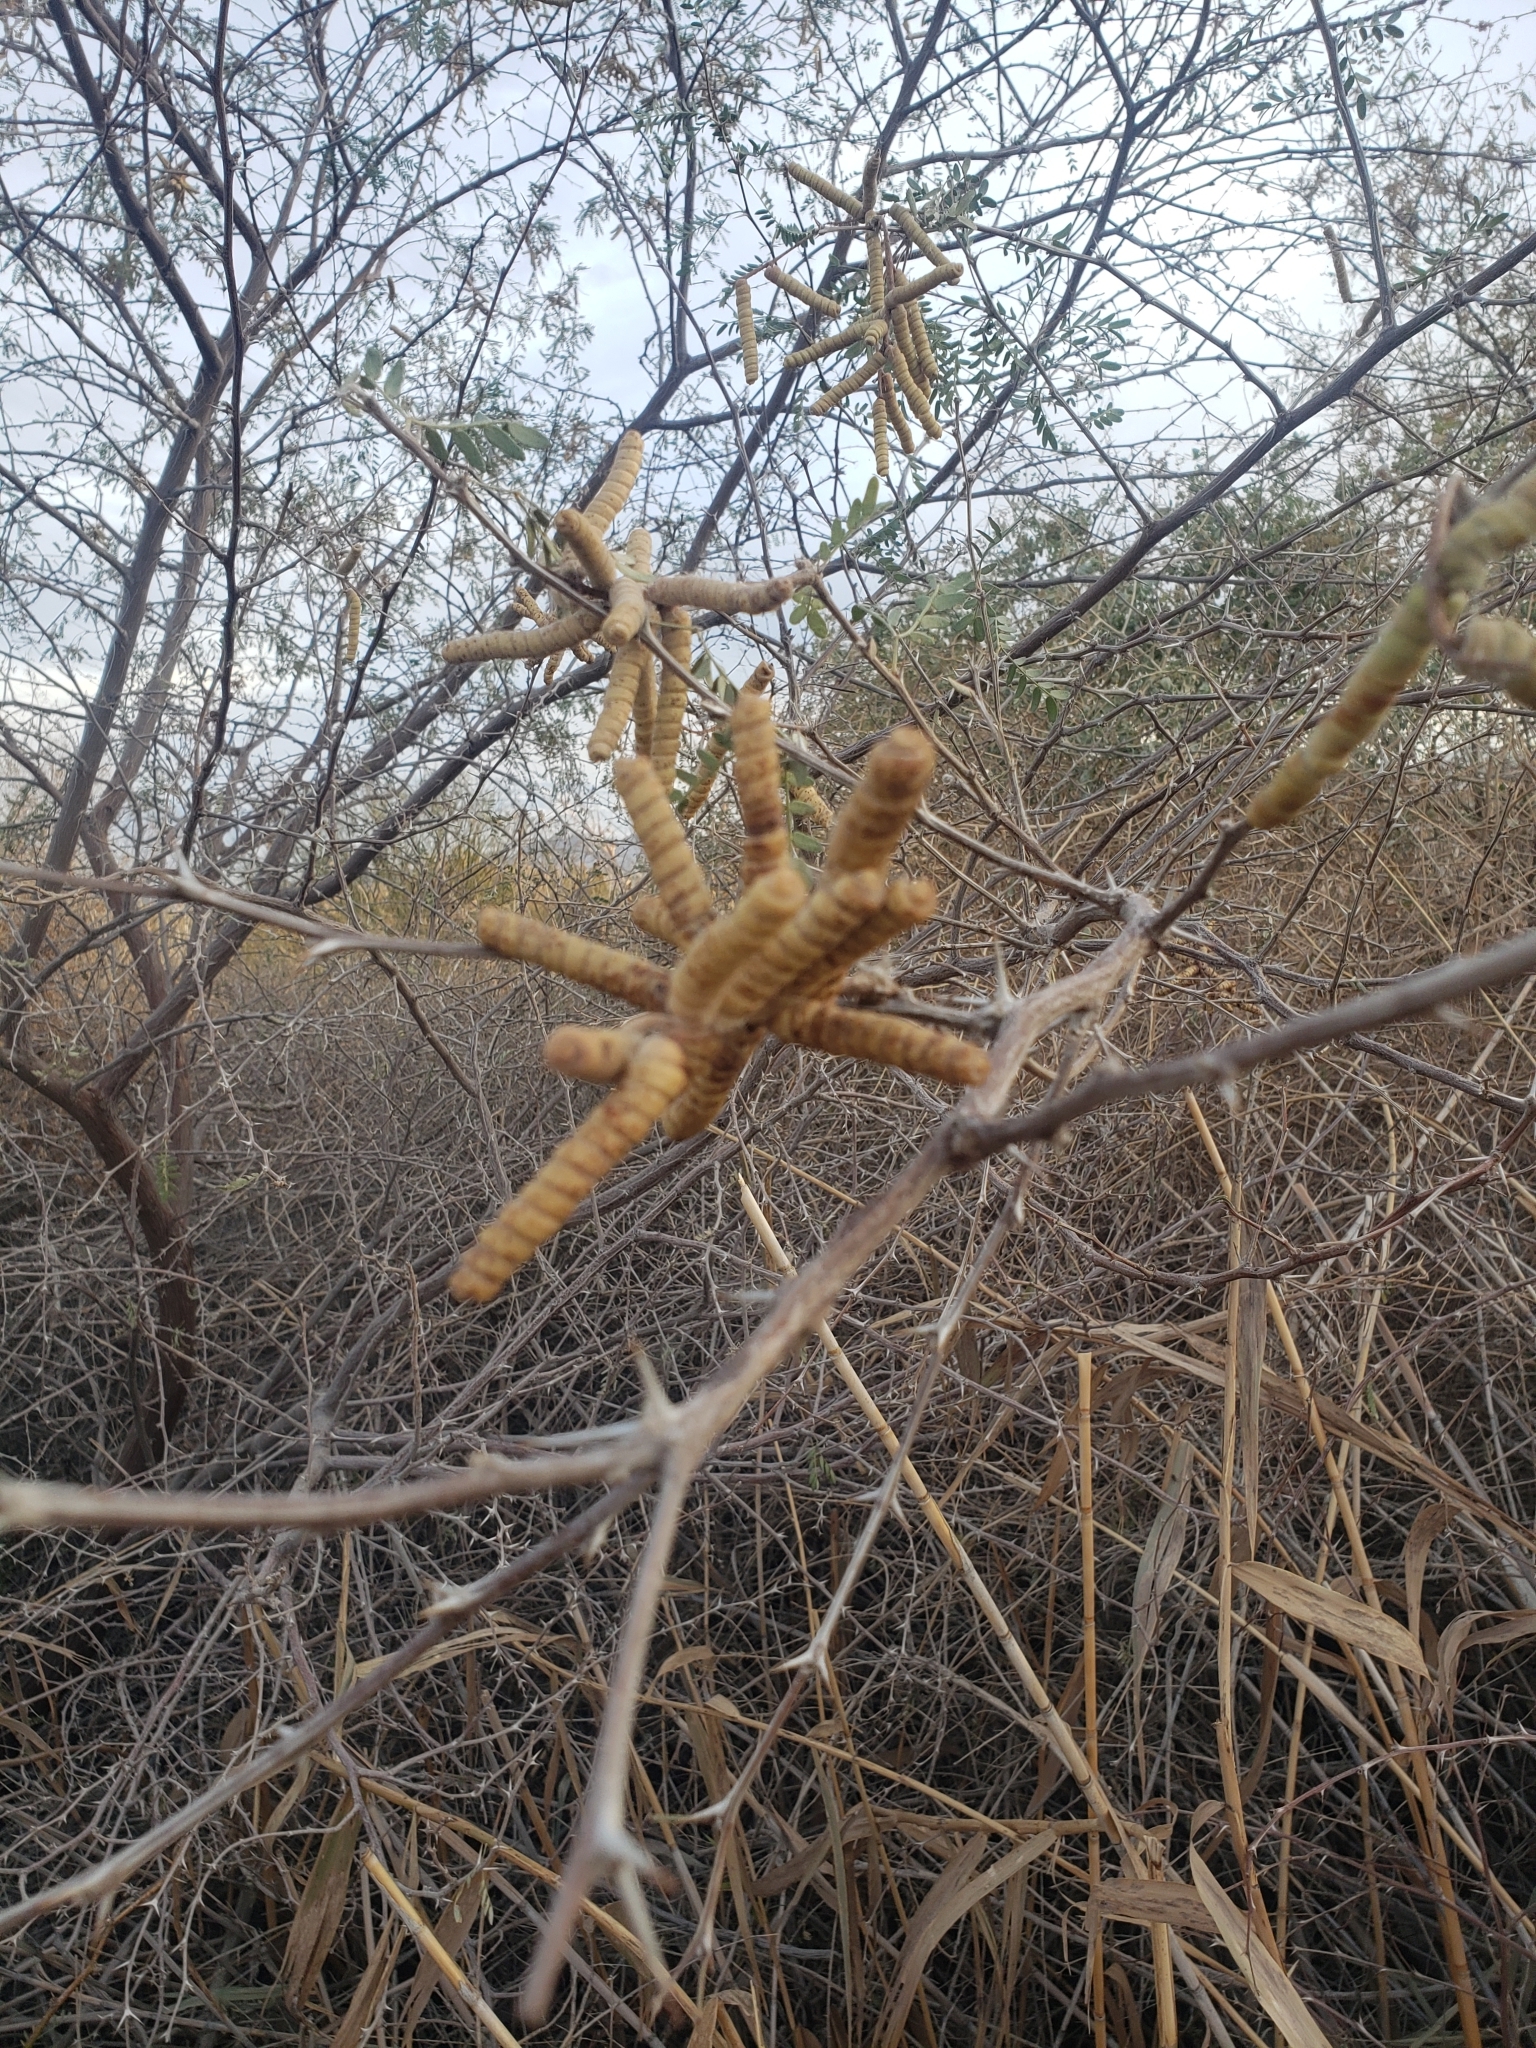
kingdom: Plantae
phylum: Tracheophyta
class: Magnoliopsida
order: Fabales
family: Fabaceae
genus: Prosopis
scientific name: Prosopis pubescens
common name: Screw-bean
